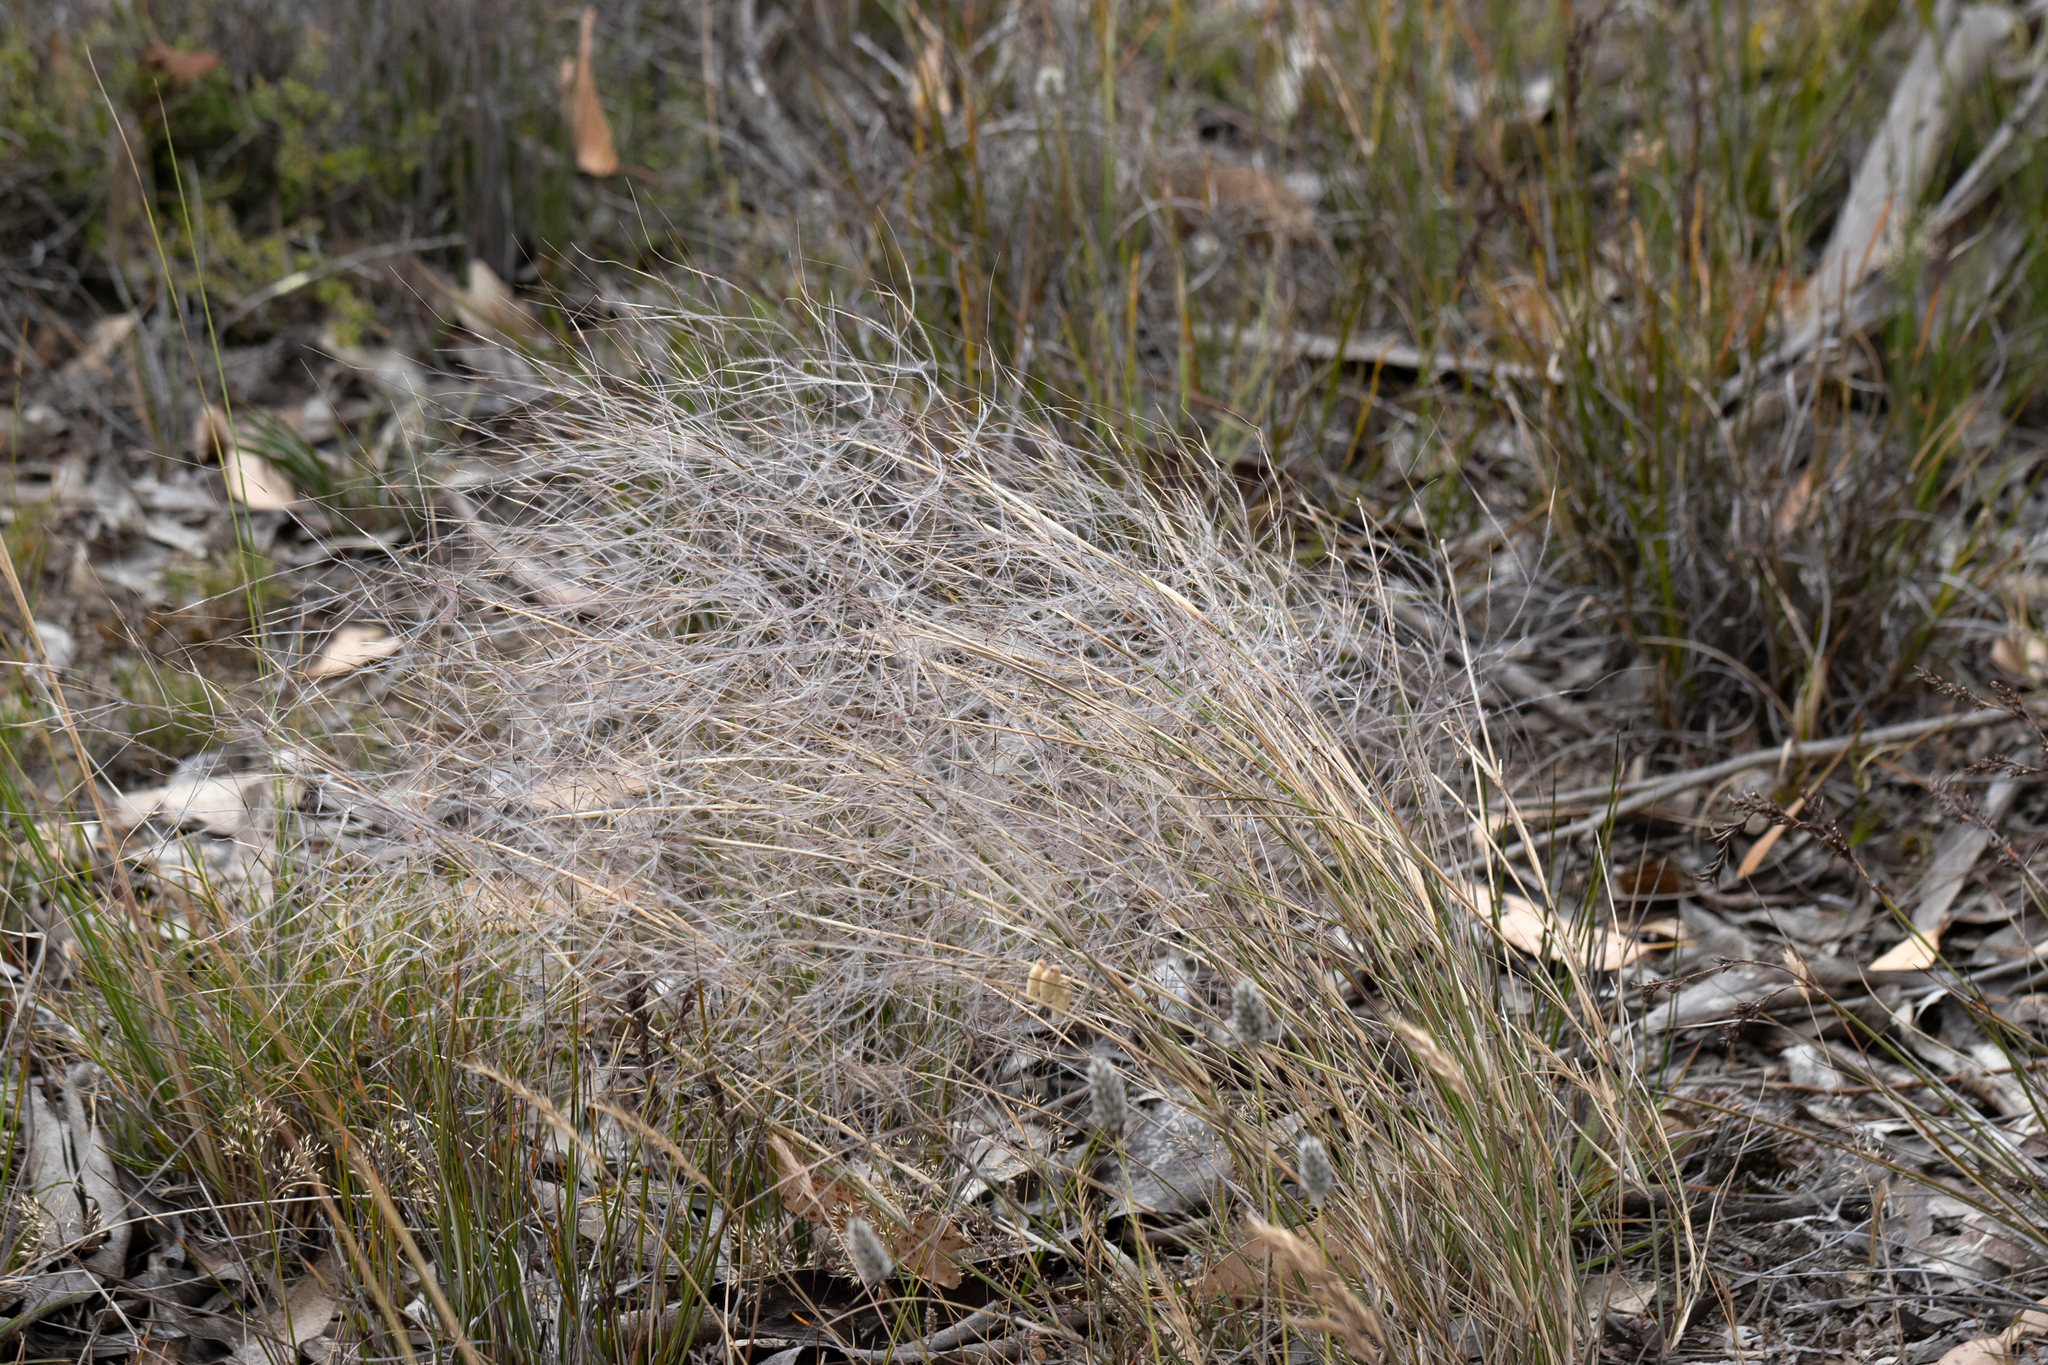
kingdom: Plantae
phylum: Tracheophyta
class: Liliopsida
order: Poales
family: Poaceae
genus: Austrostipa
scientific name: Austrostipa elegantissima
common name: Feather spear grass
